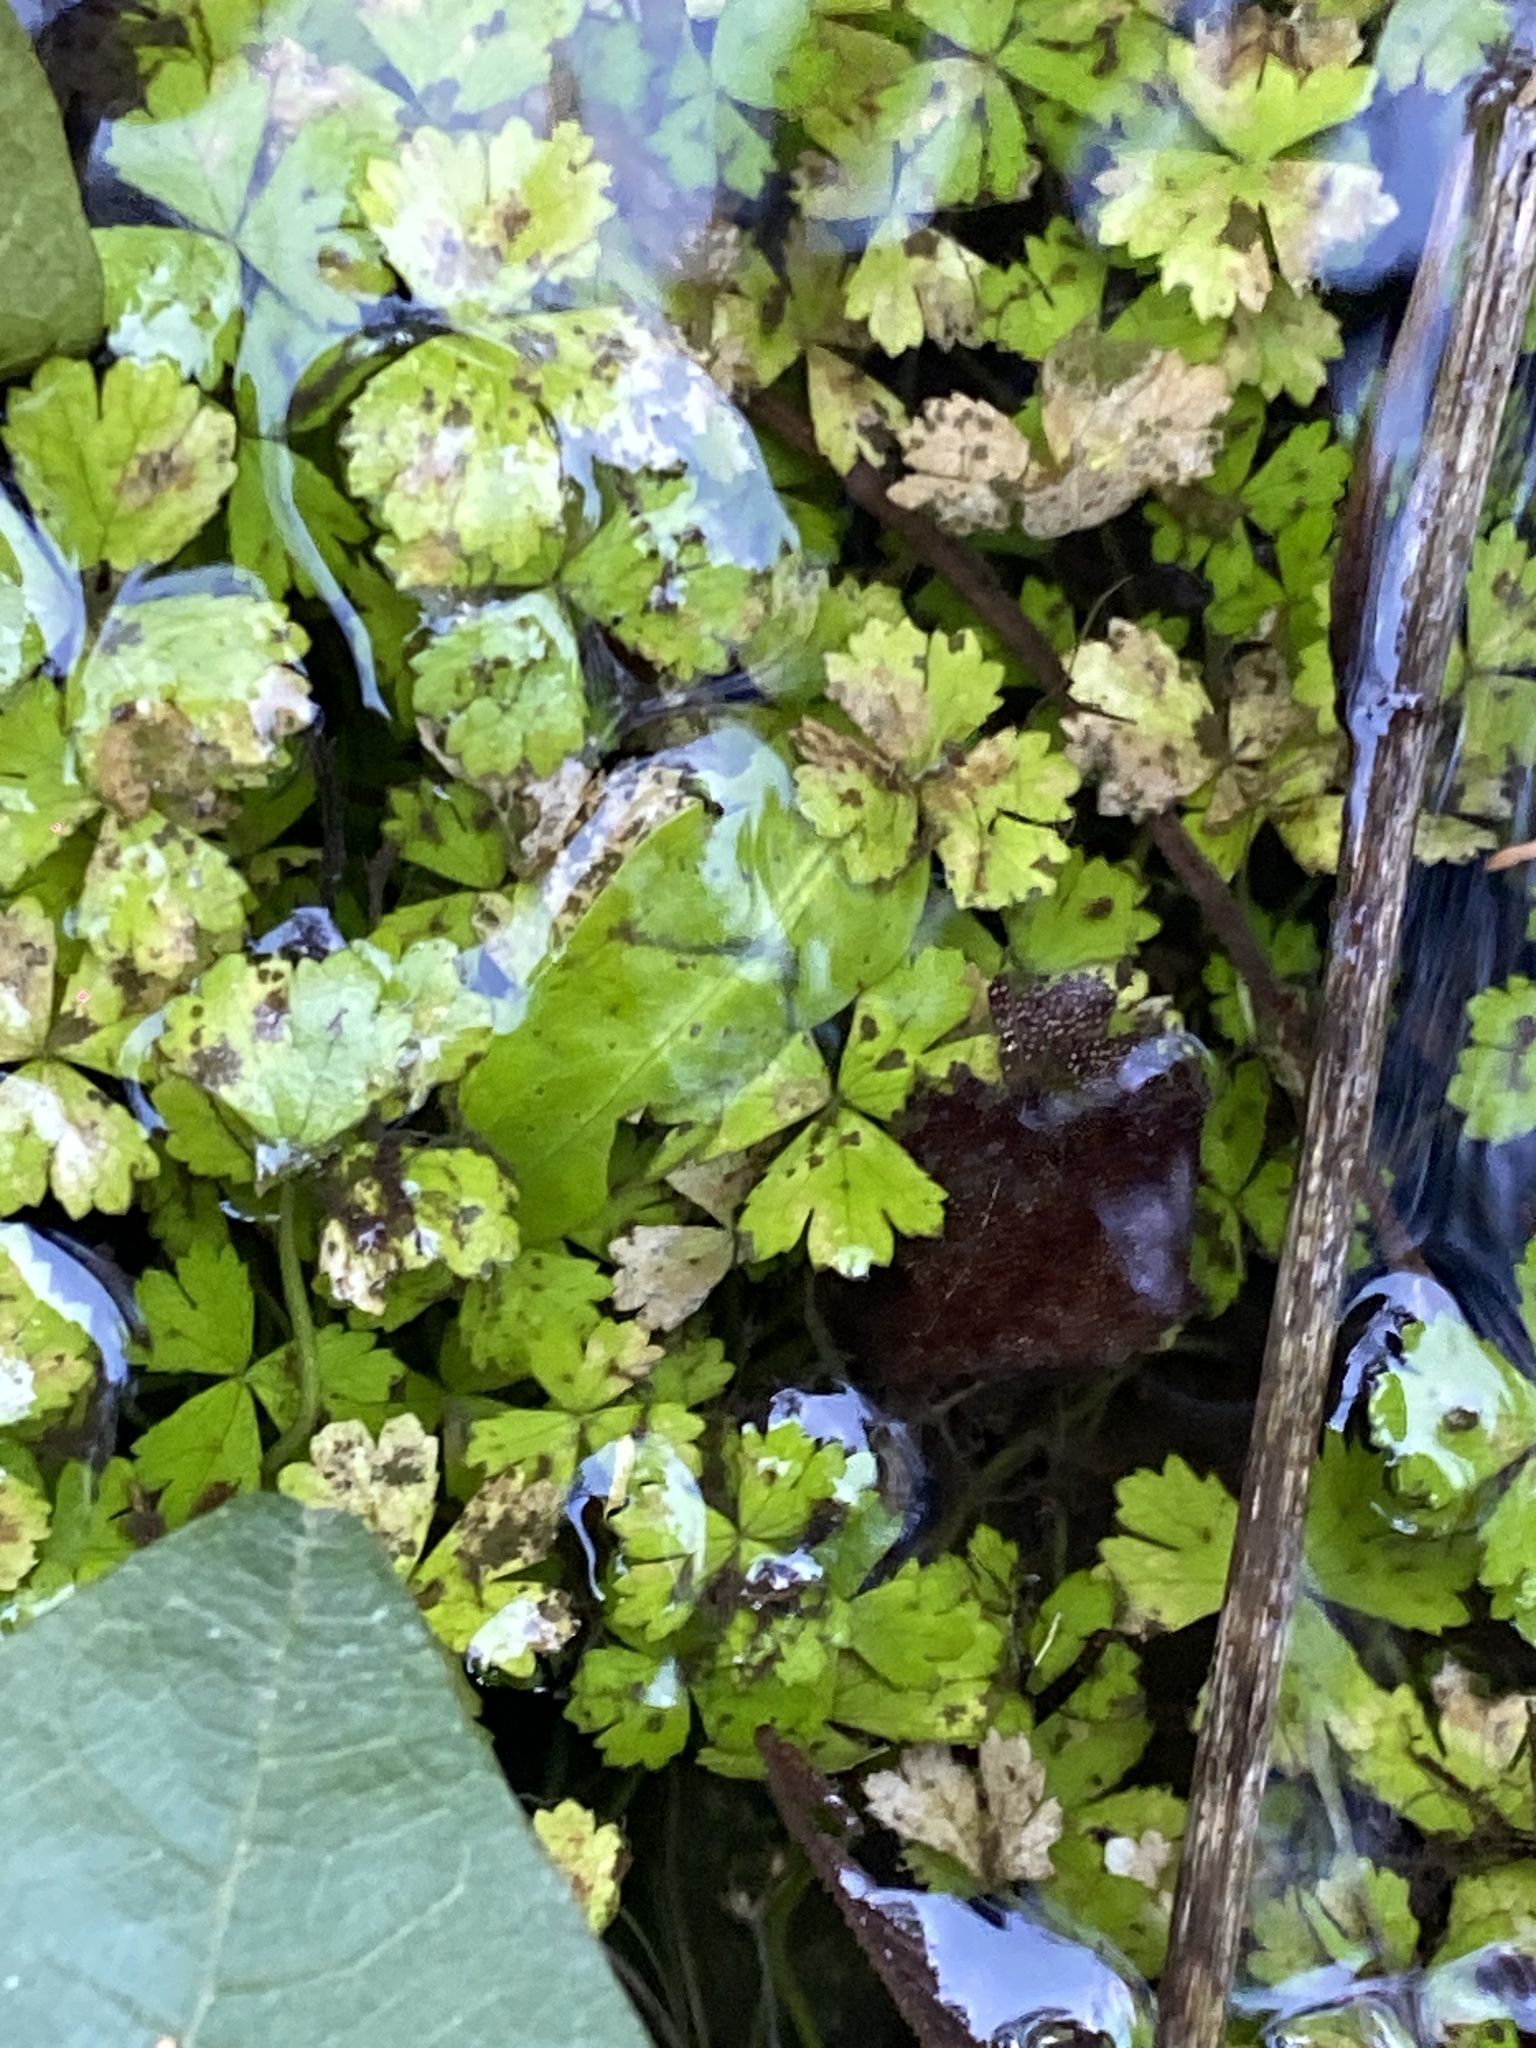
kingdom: Plantae
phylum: Tracheophyta
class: Magnoliopsida
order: Apiales
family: Araliaceae
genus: Hydrocotyle
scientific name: Hydrocotyle tripartita
